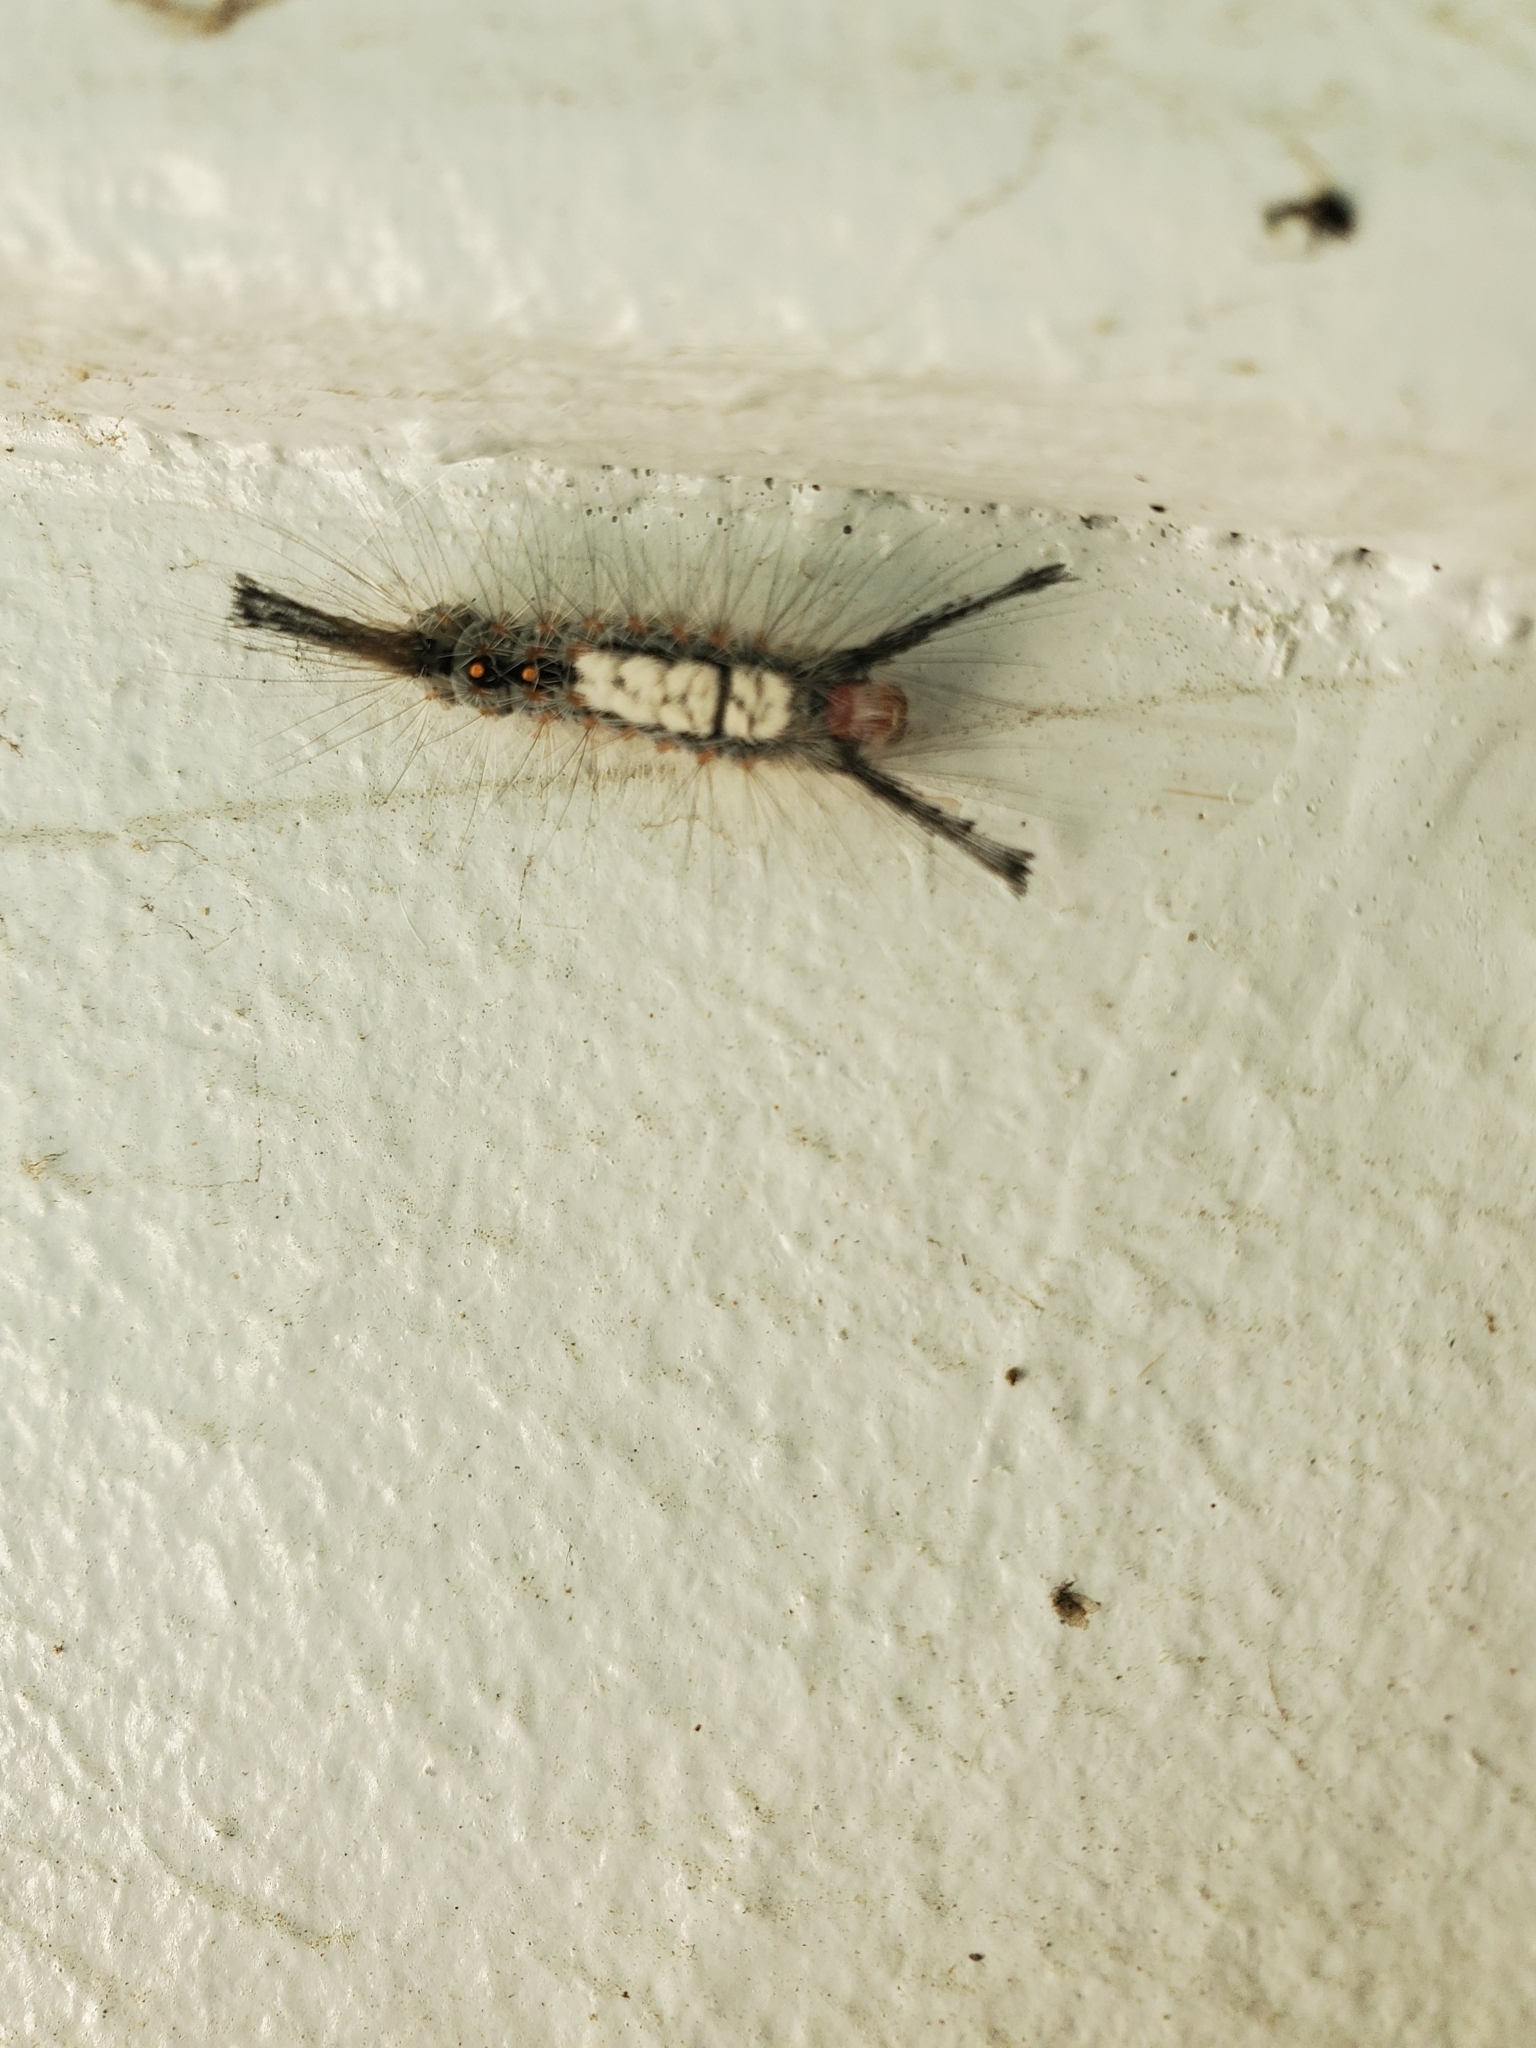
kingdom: Animalia
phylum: Arthropoda
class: Insecta
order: Lepidoptera
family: Erebidae
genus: Orgyia
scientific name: Orgyia detrita
